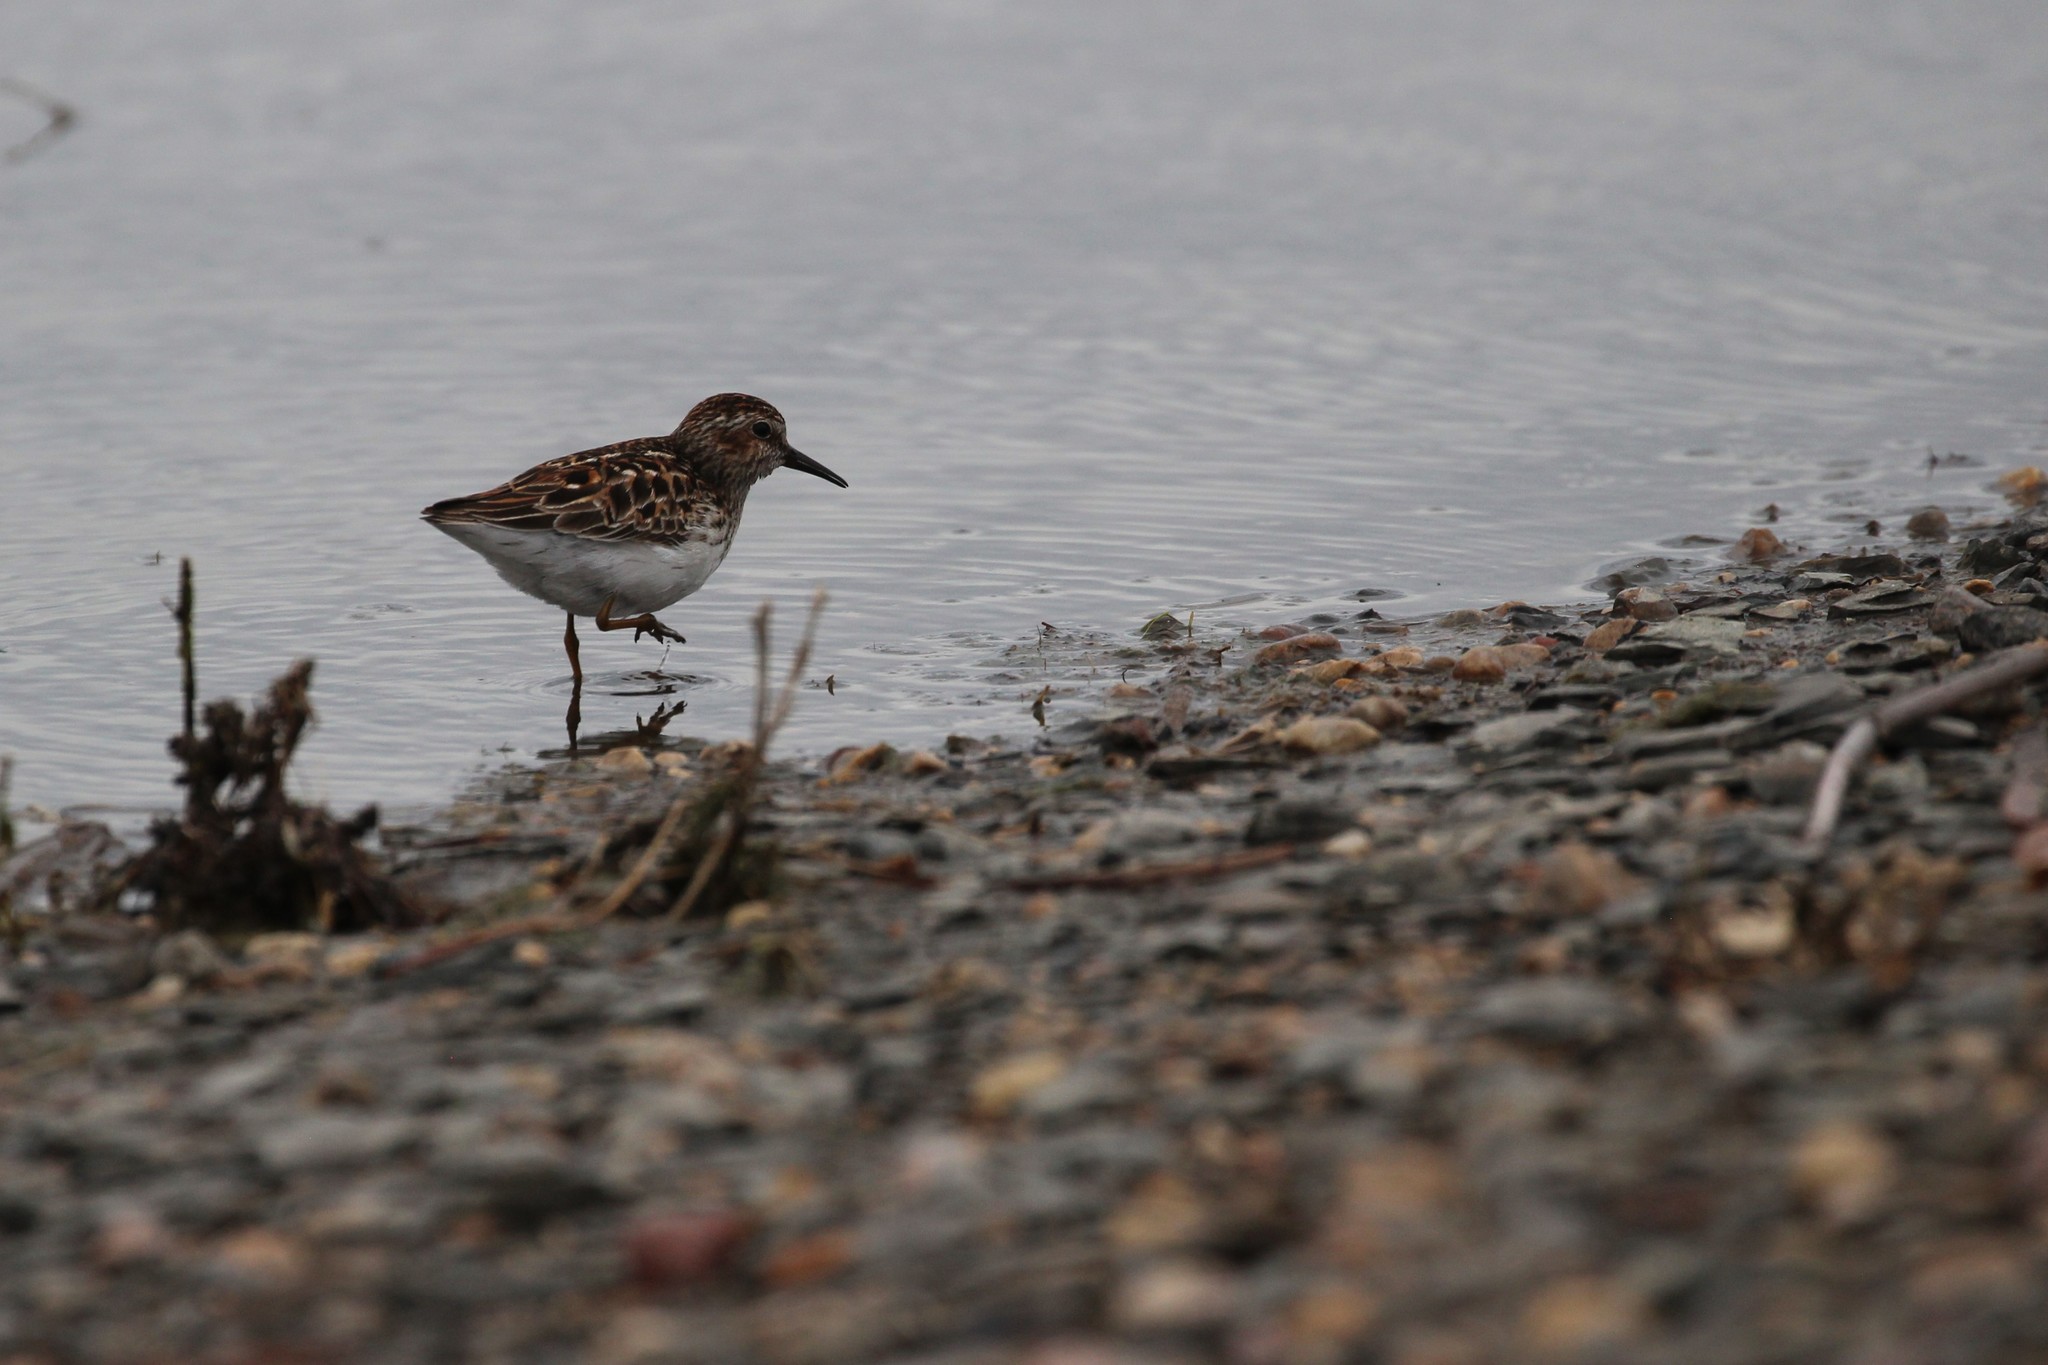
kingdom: Animalia
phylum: Chordata
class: Aves
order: Charadriiformes
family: Scolopacidae
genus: Calidris
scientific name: Calidris minutilla
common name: Least sandpiper
